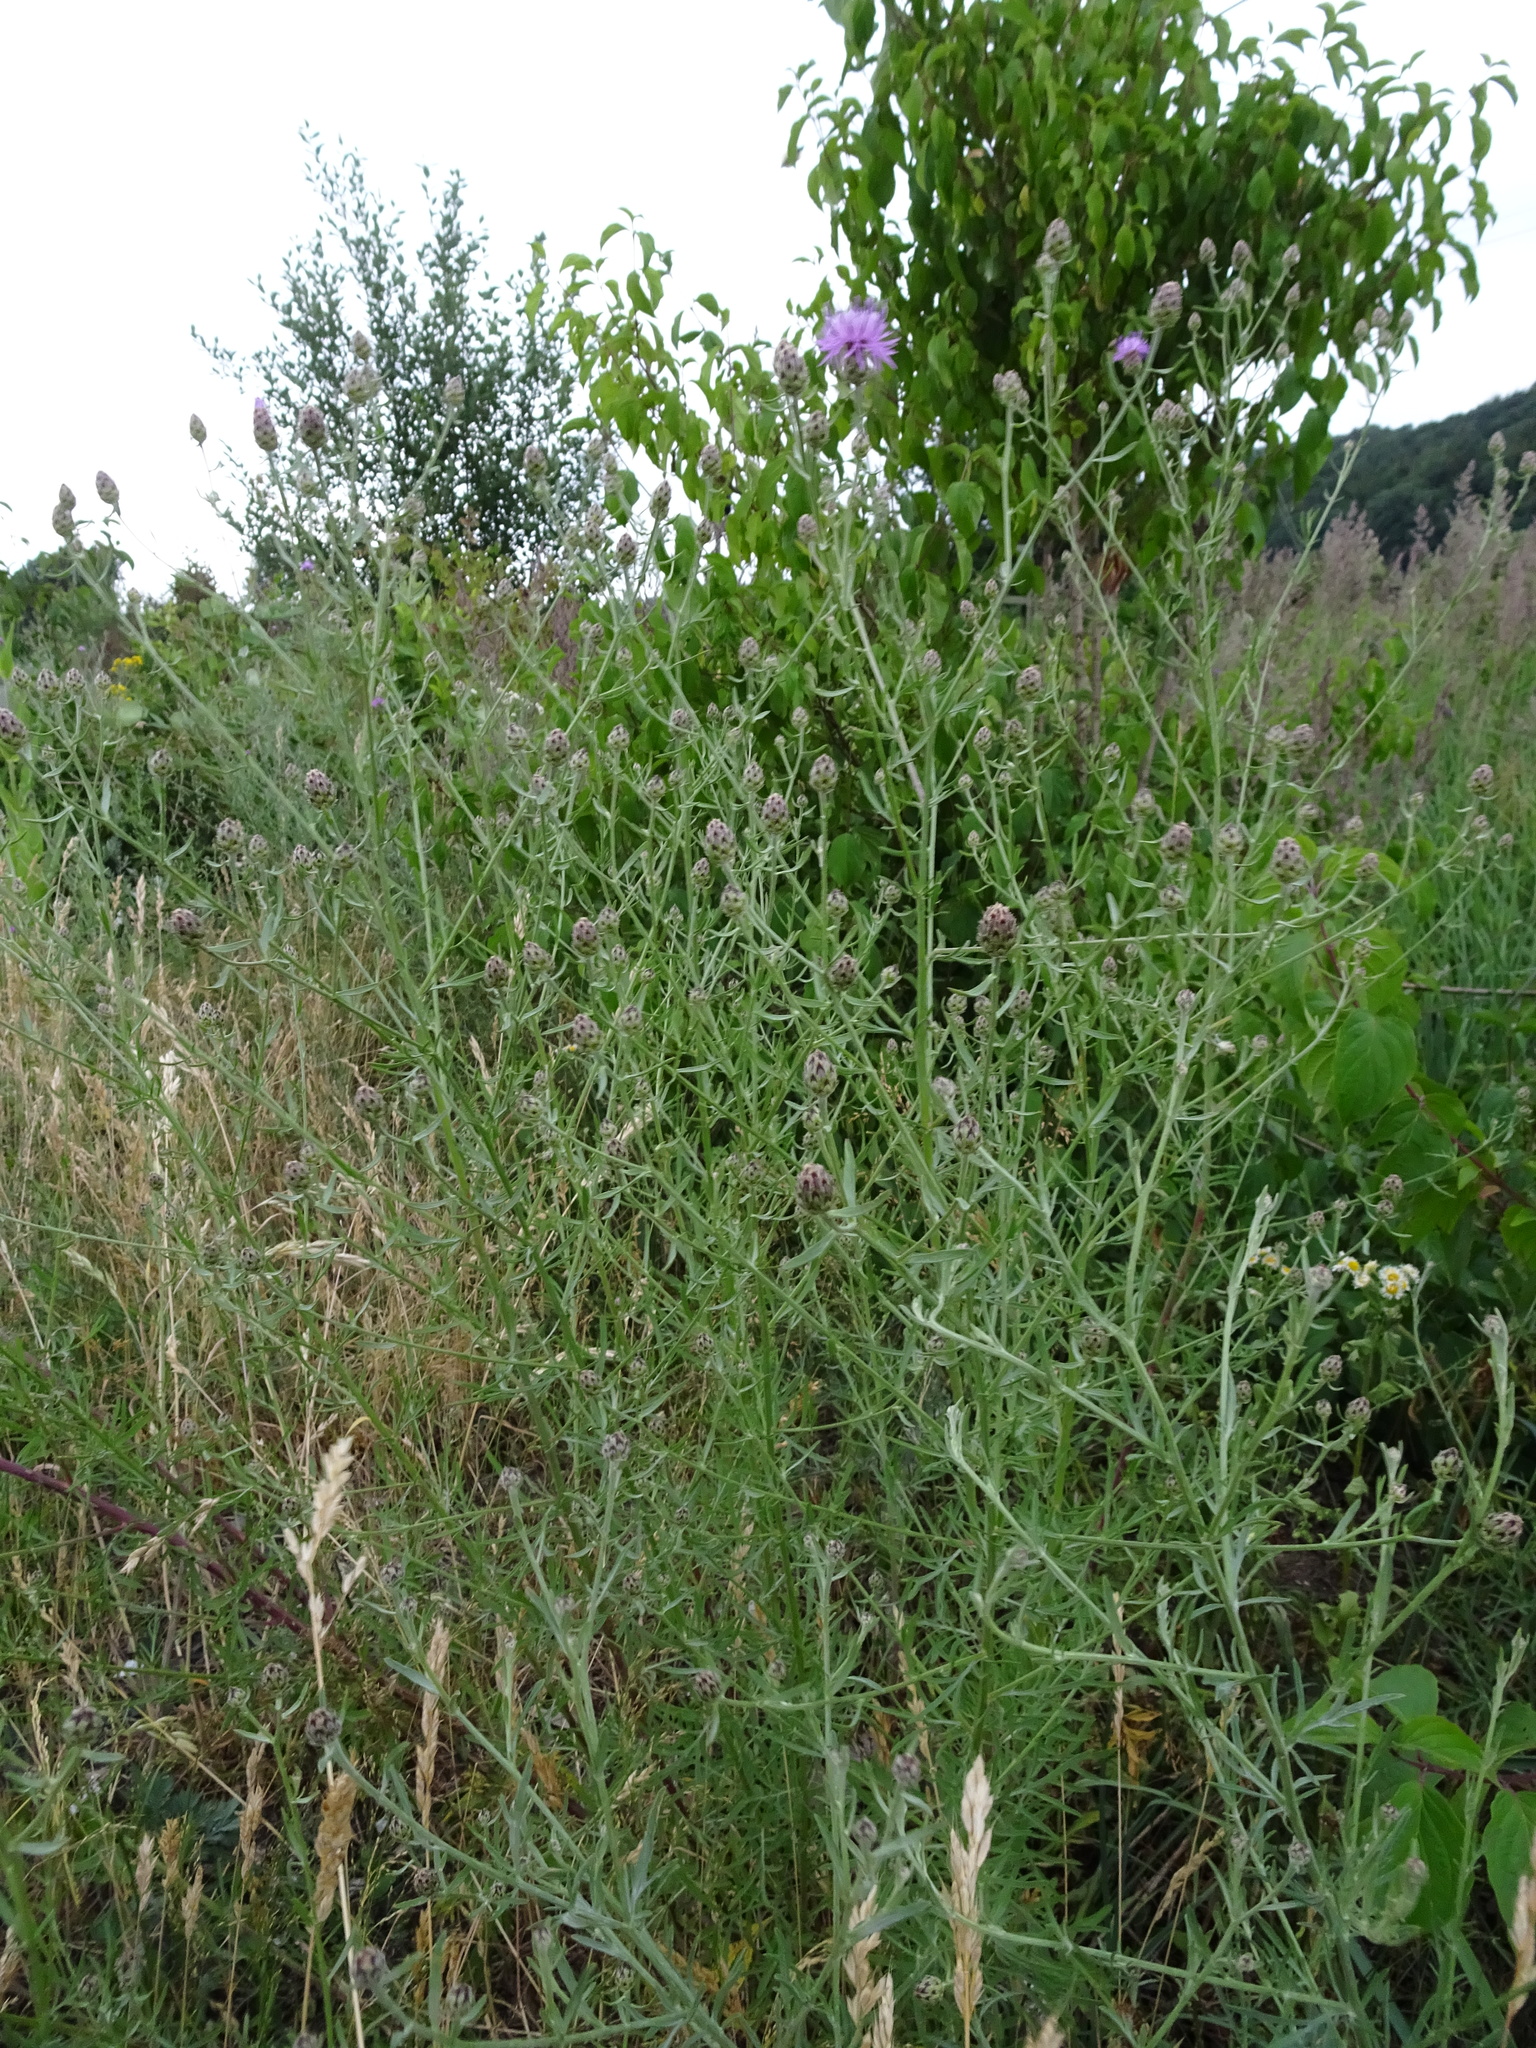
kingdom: Plantae
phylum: Tracheophyta
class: Magnoliopsida
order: Asterales
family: Asteraceae
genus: Centaurea
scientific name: Centaurea stoebe
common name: Spotted knapweed
